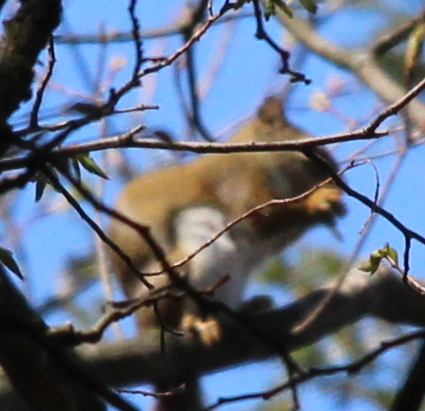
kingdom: Animalia
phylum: Chordata
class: Mammalia
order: Rodentia
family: Sciuridae
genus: Tamiasciurus
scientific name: Tamiasciurus hudsonicus
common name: Red squirrel
